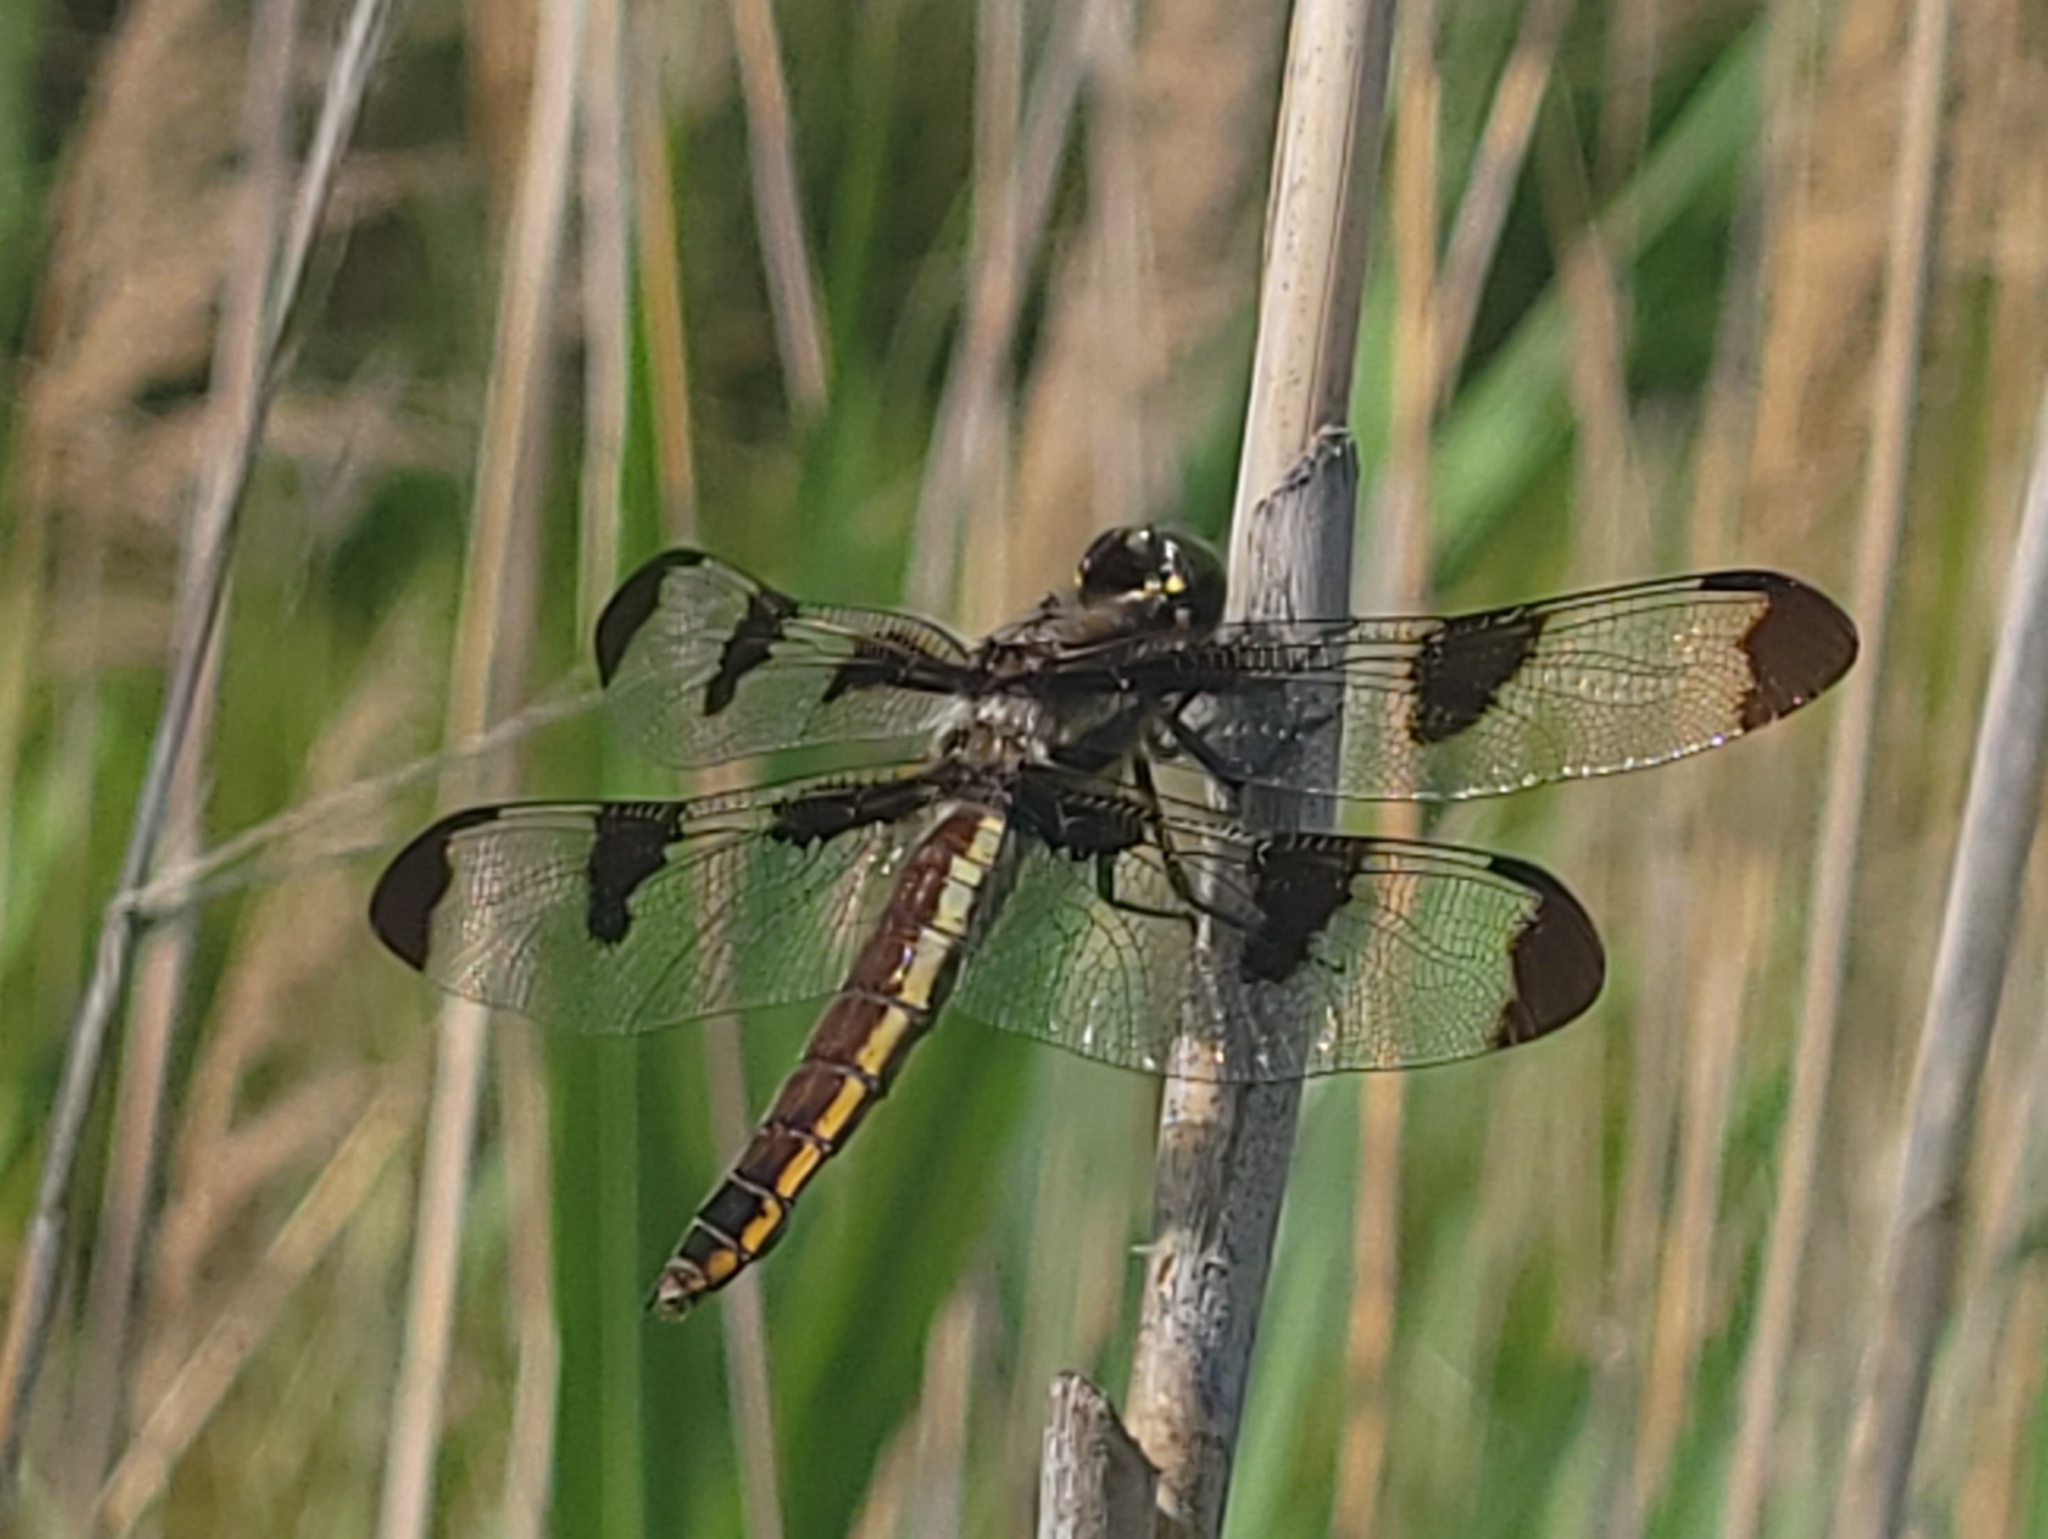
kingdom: Animalia
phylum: Arthropoda
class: Insecta
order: Odonata
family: Libellulidae
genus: Libellula
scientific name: Libellula pulchella
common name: Twelve-spotted skimmer
